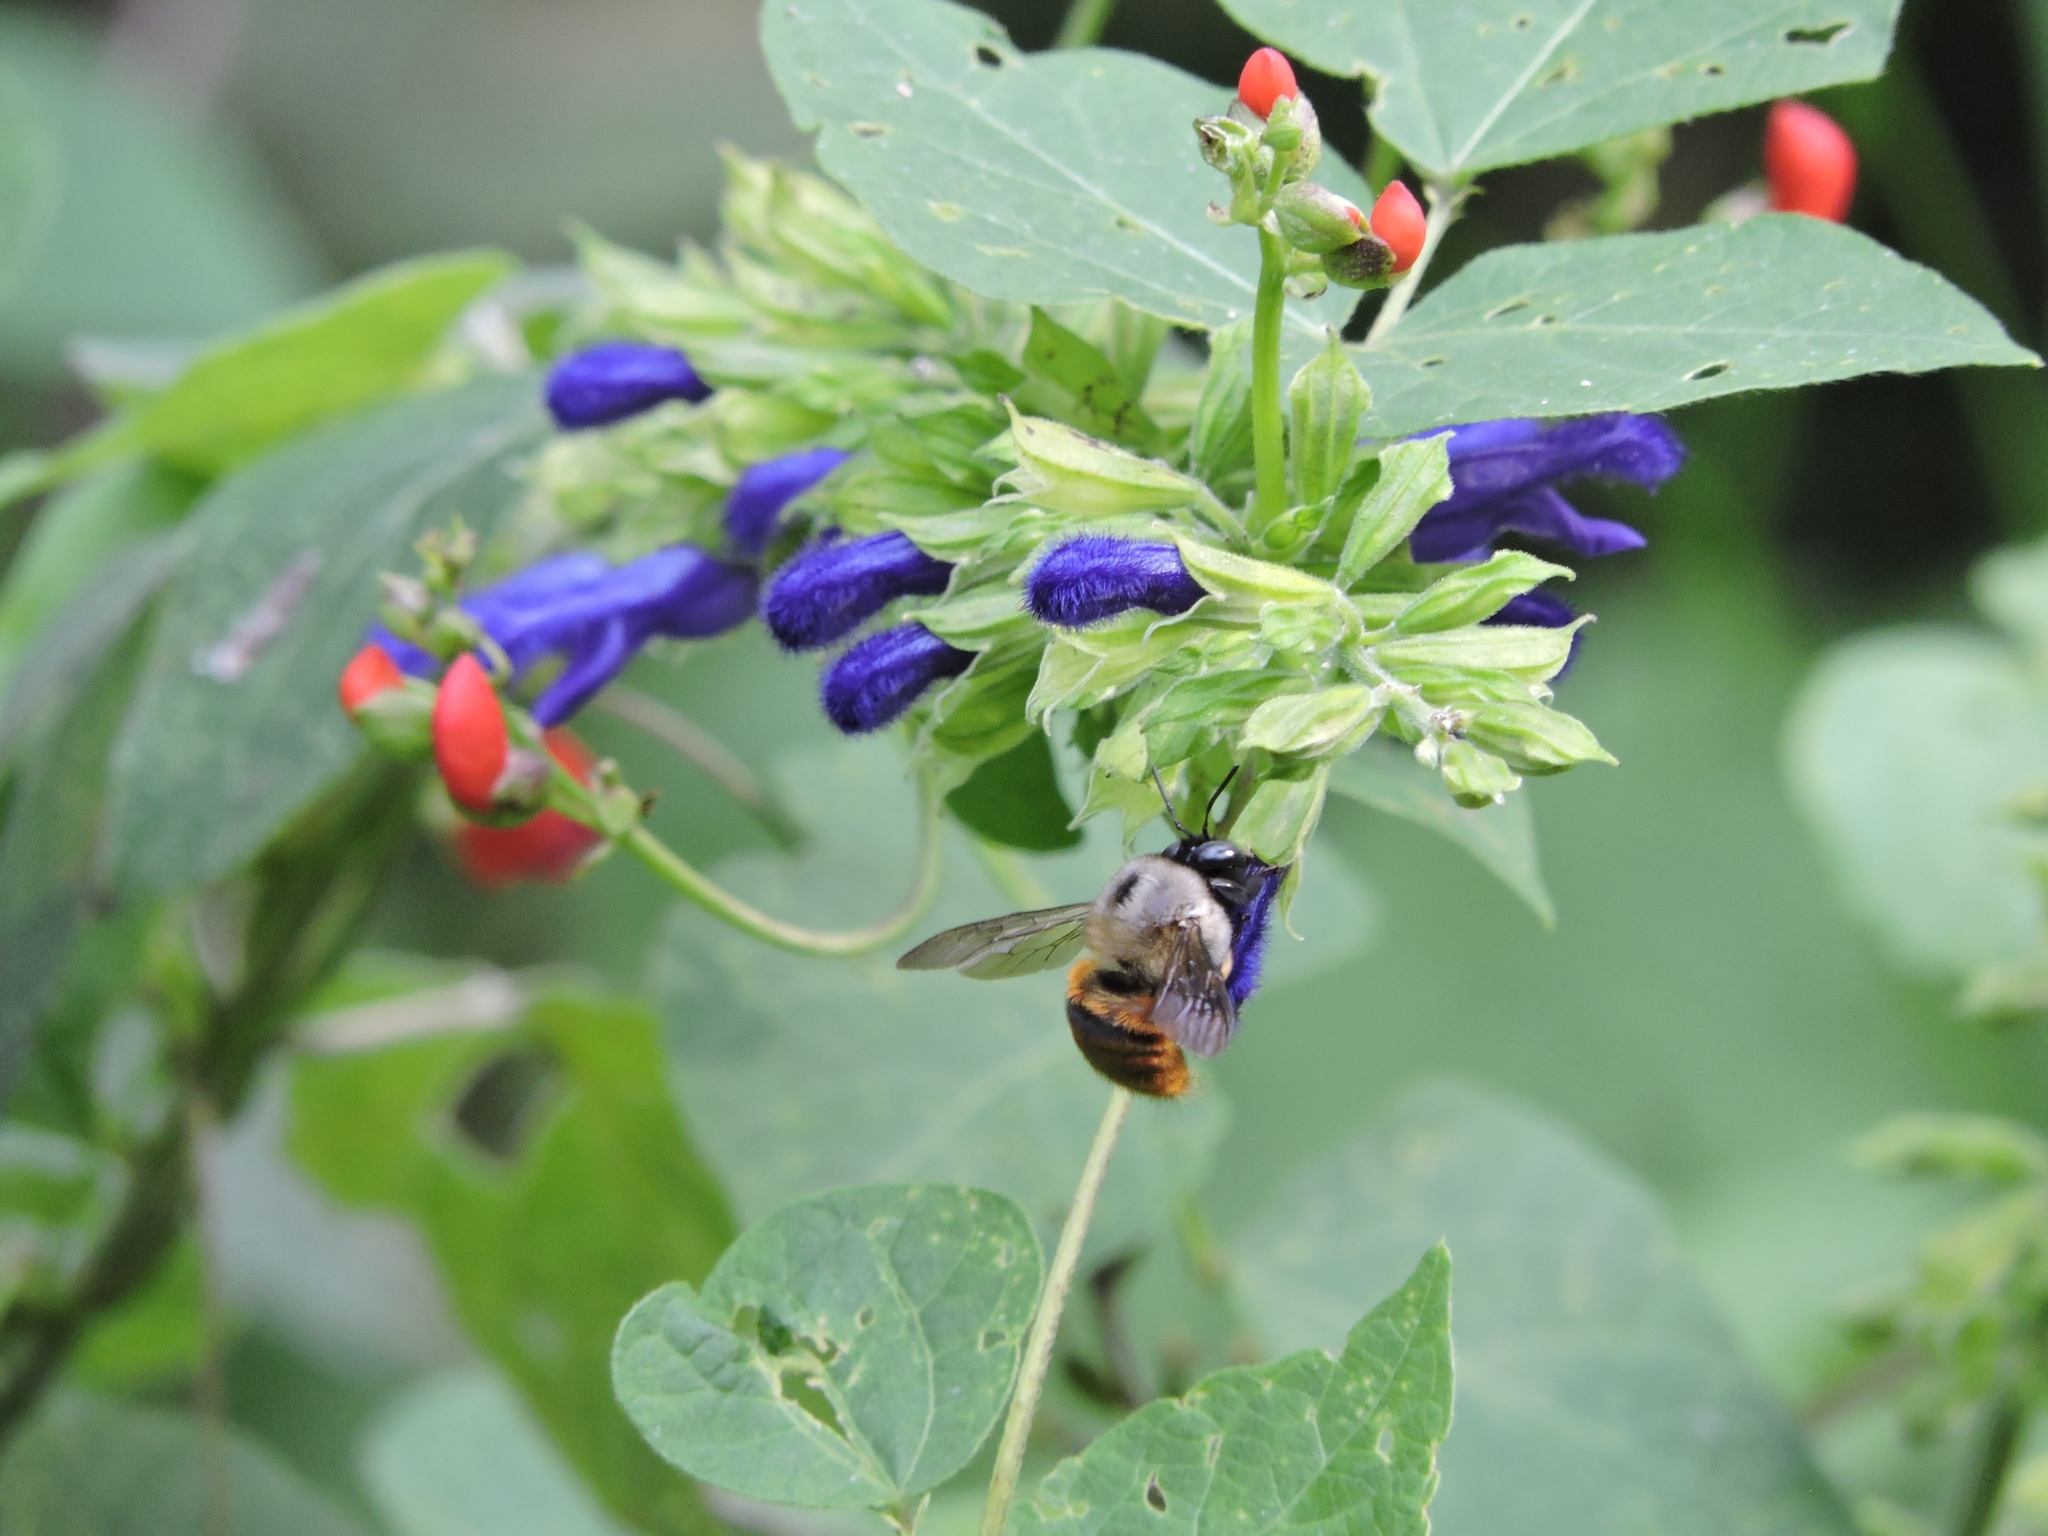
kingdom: Animalia
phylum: Arthropoda
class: Insecta
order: Hymenoptera
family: Apidae
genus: Xylocopa
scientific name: Xylocopa tabaniformis
